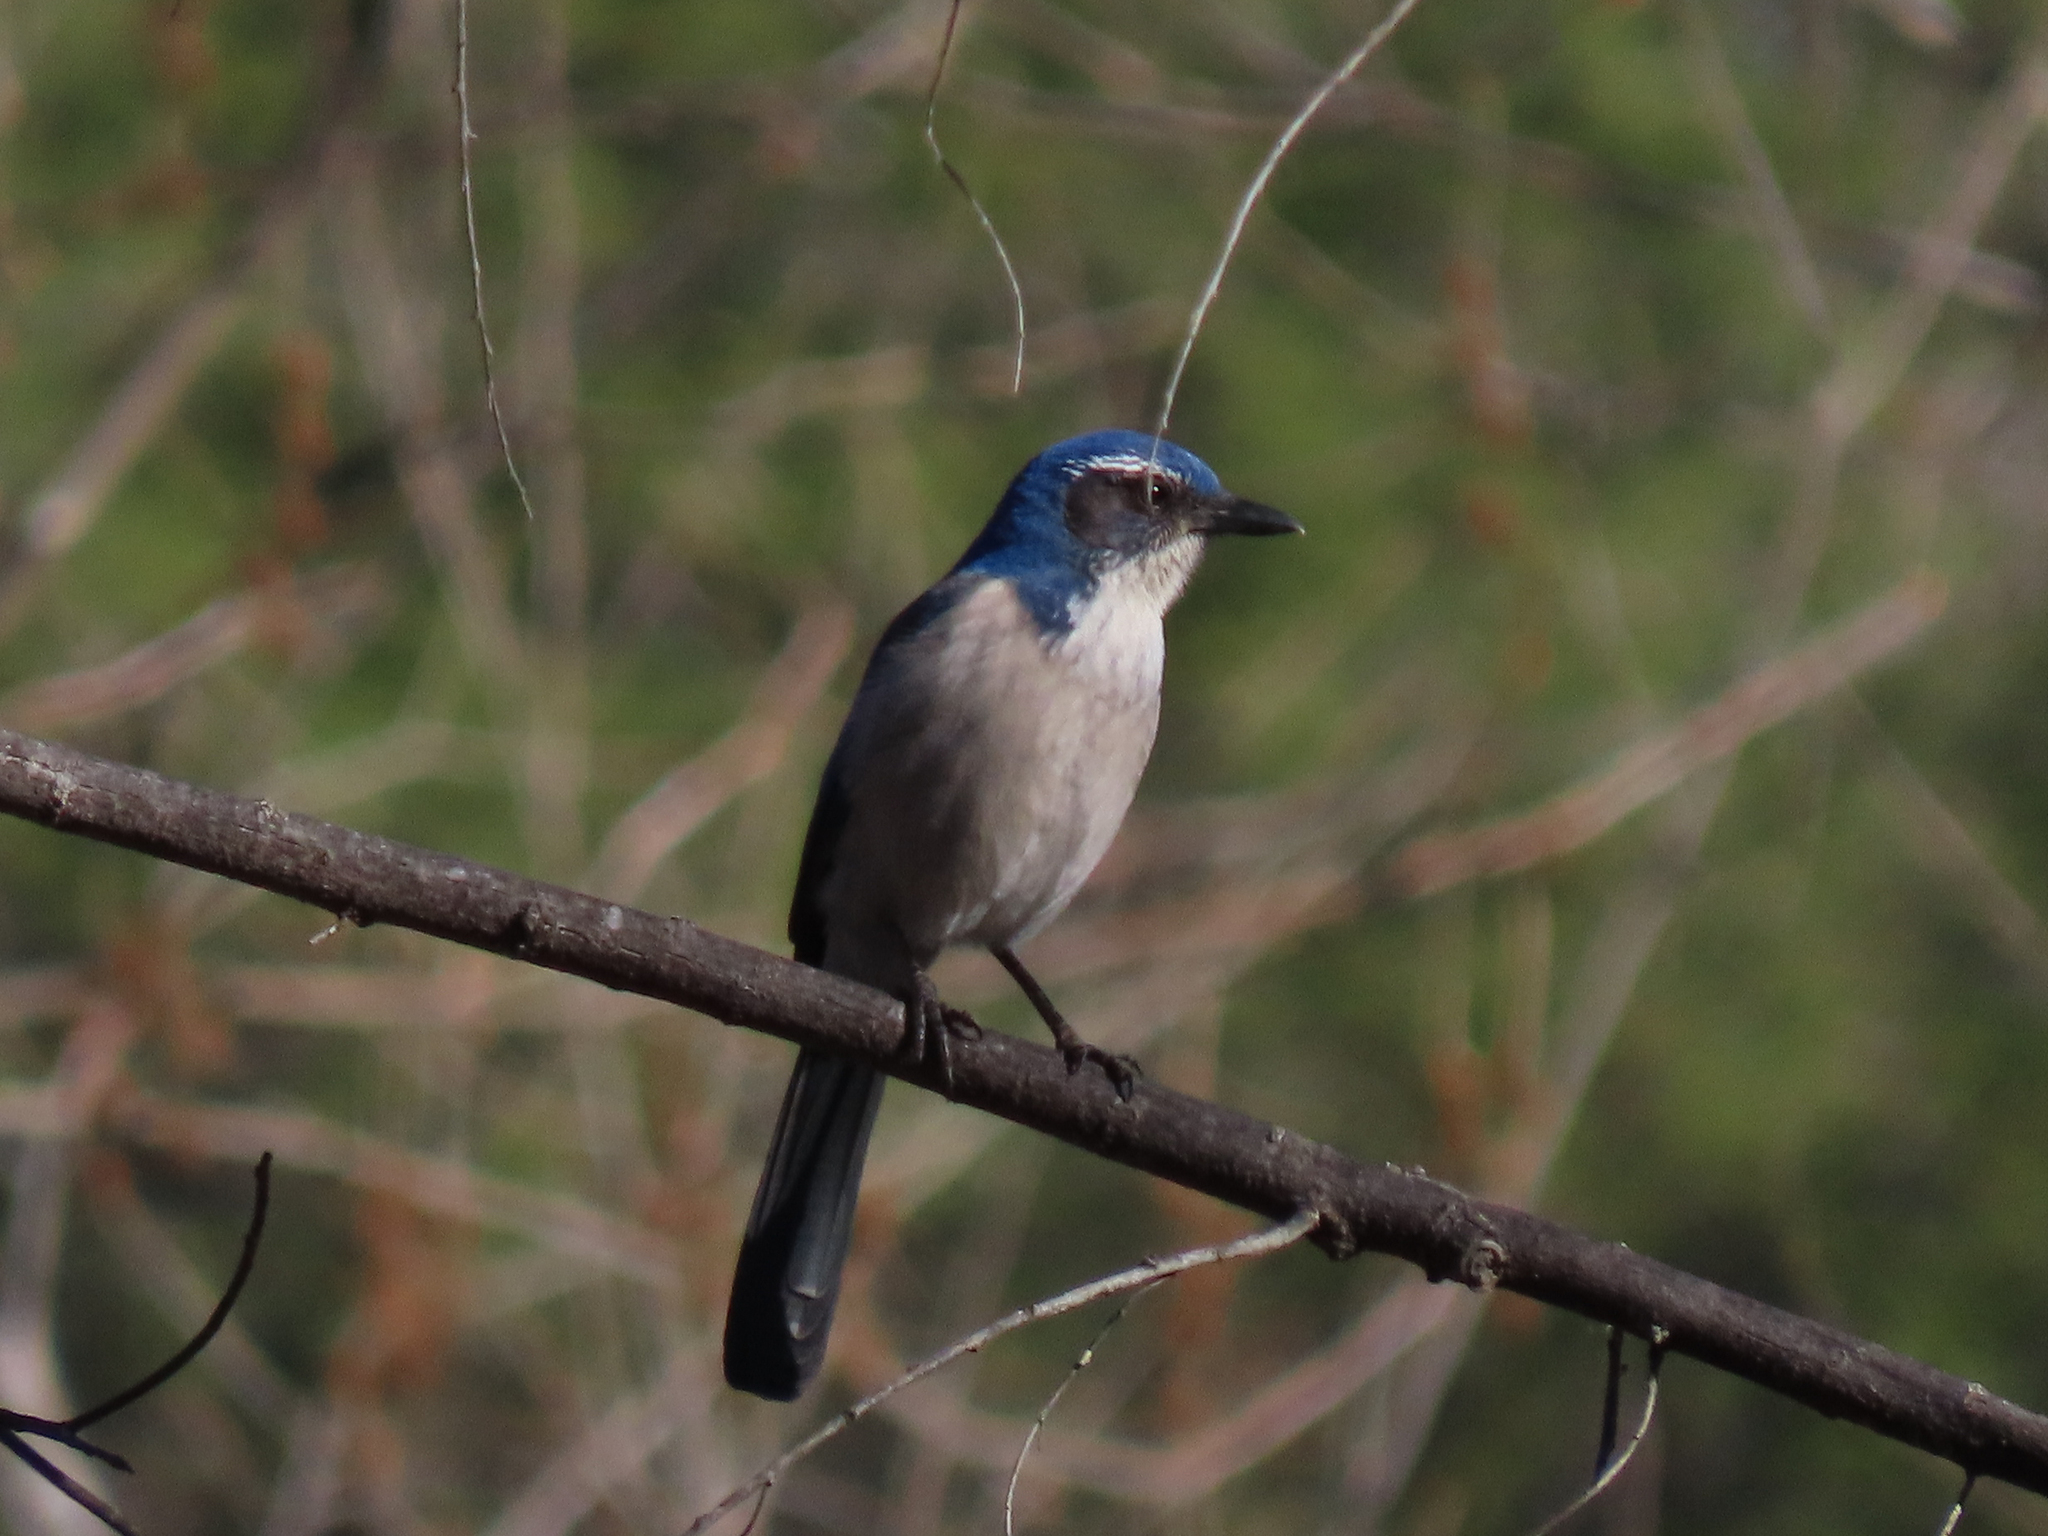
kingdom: Animalia
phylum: Chordata
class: Aves
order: Passeriformes
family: Corvidae
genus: Aphelocoma
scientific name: Aphelocoma californica
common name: California scrub-jay
